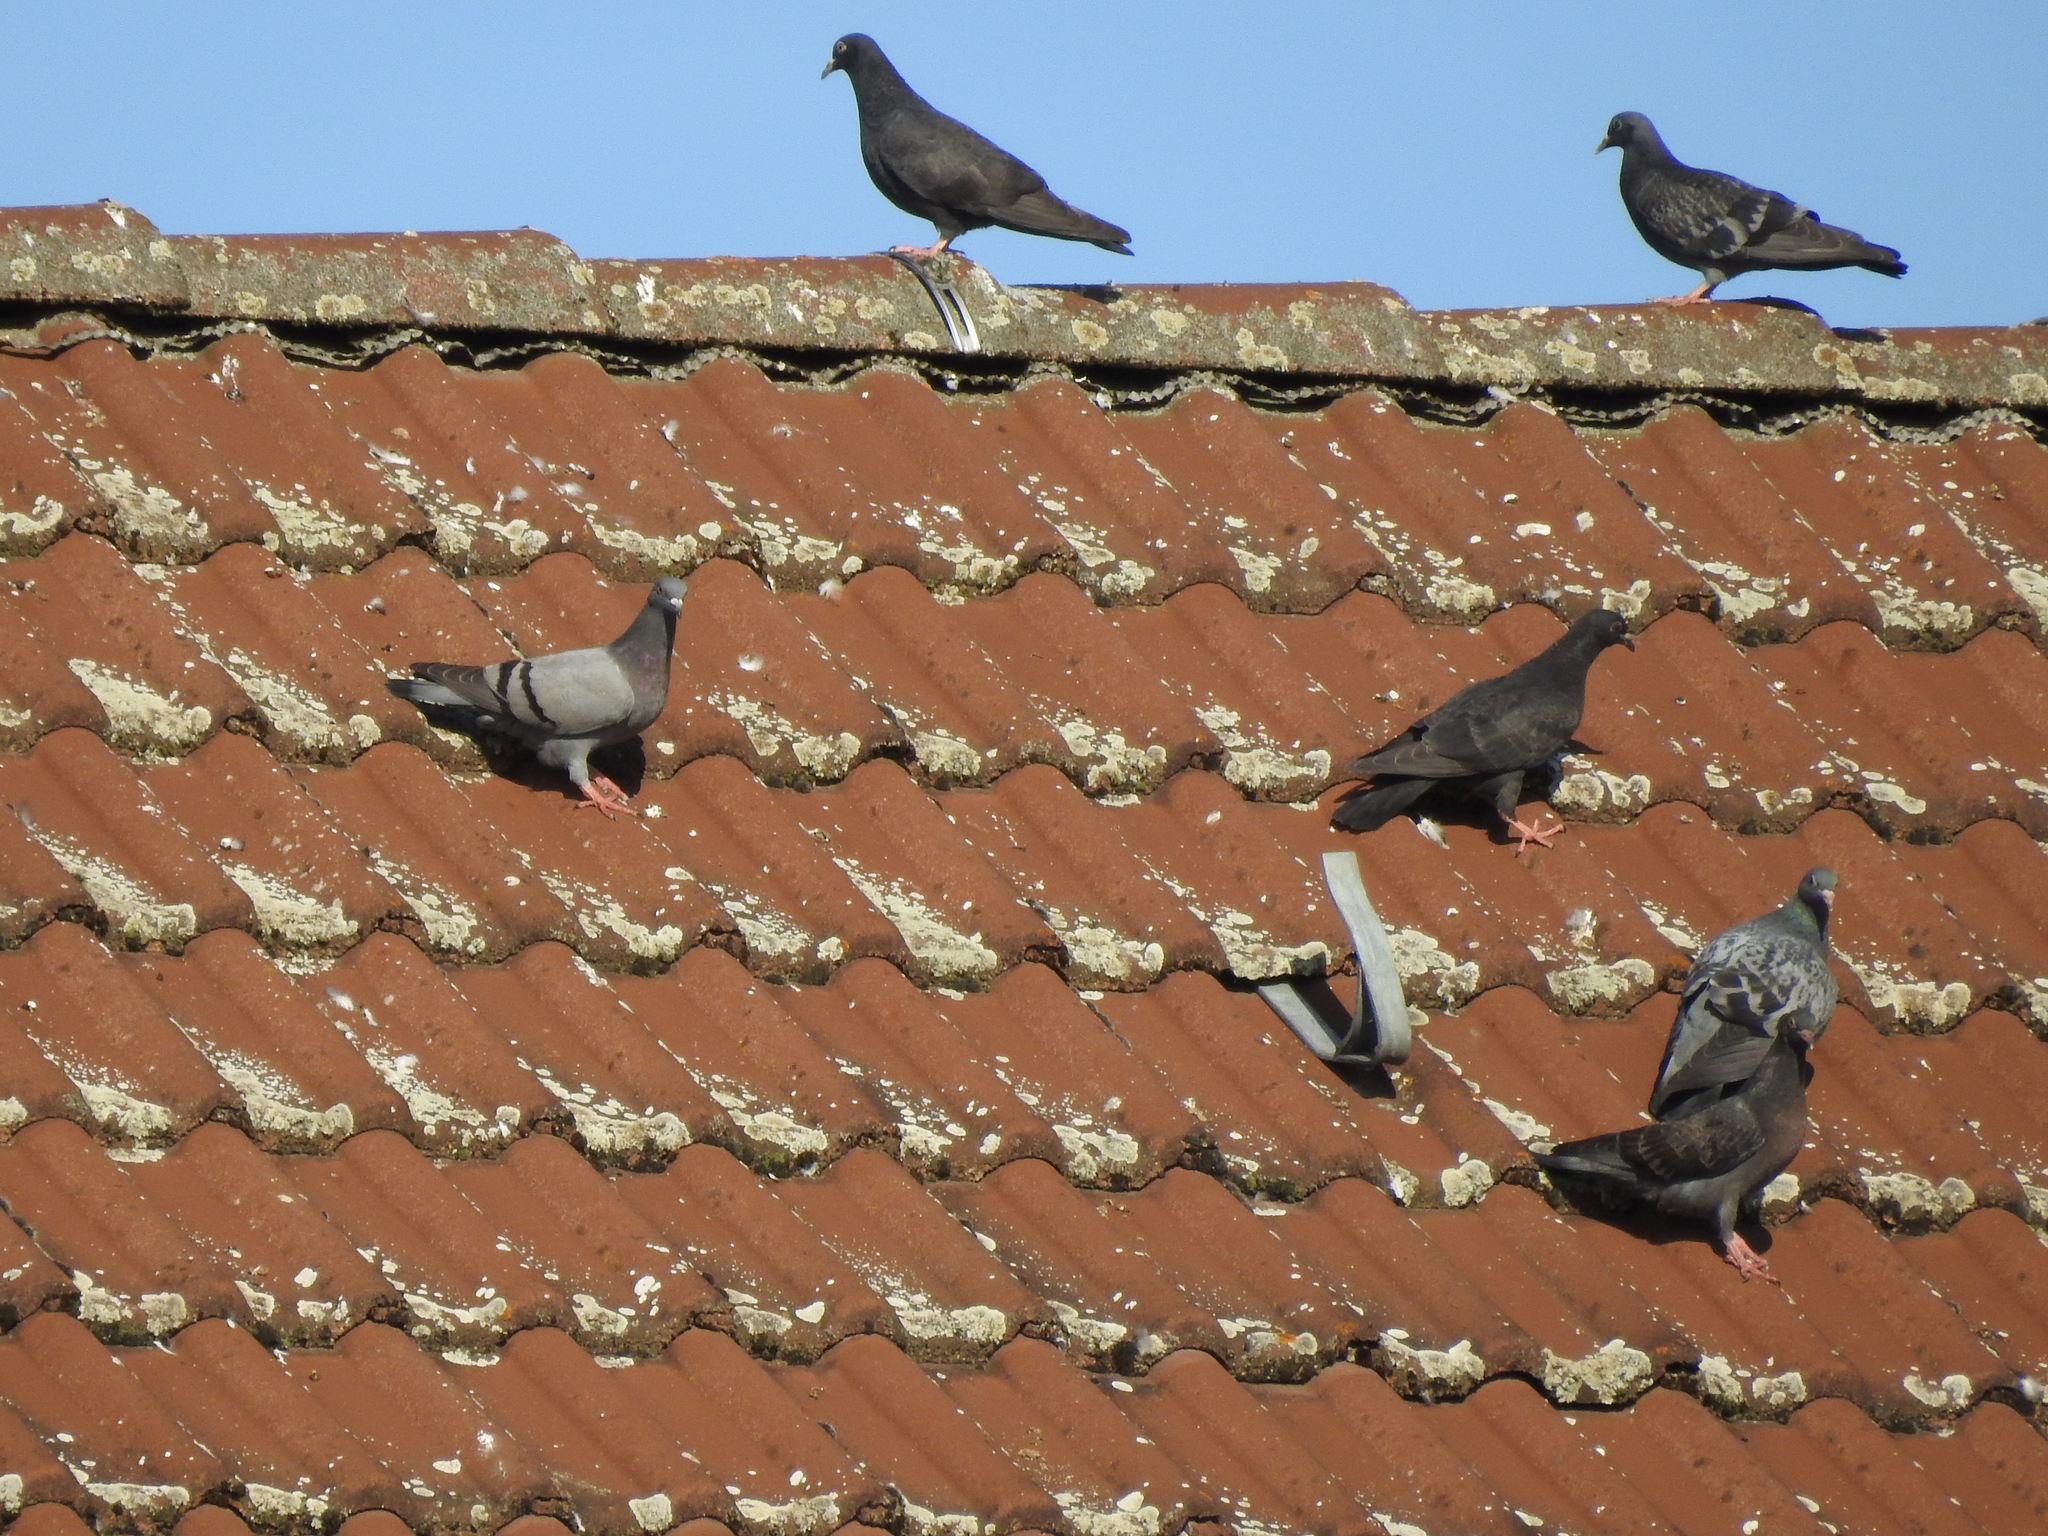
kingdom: Animalia
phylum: Chordata
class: Aves
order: Columbiformes
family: Columbidae
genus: Columba
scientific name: Columba livia
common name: Rock pigeon
